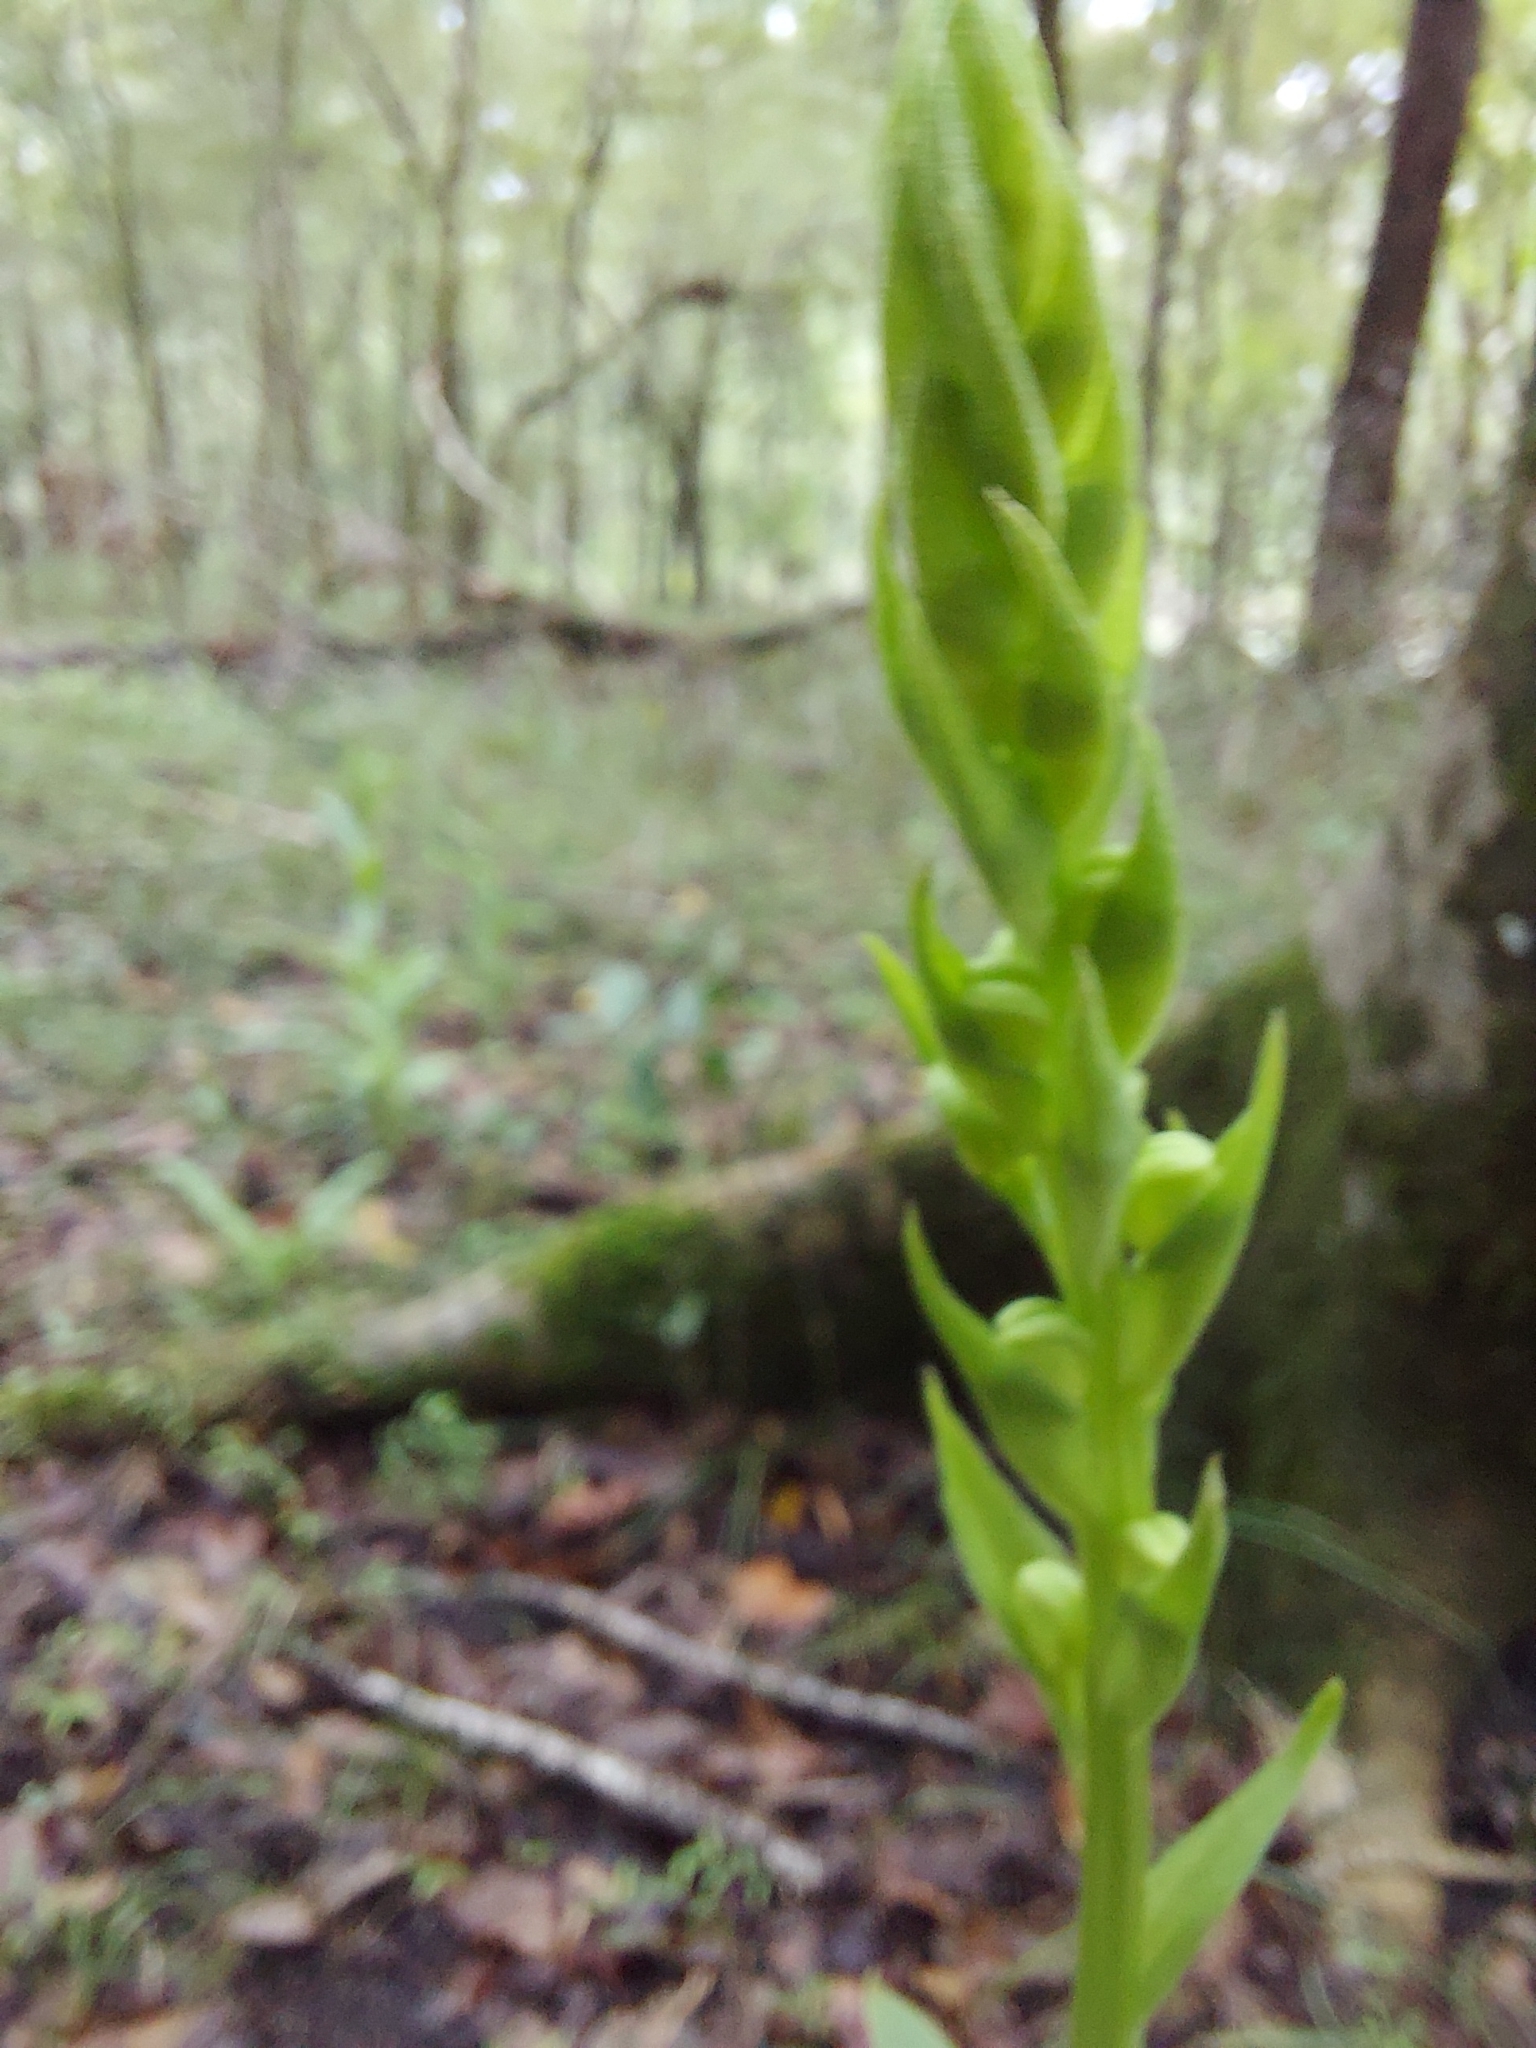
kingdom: Plantae
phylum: Tracheophyta
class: Liliopsida
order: Asparagales
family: Orchidaceae
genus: Habenaria
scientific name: Habenaria quinqueseta
